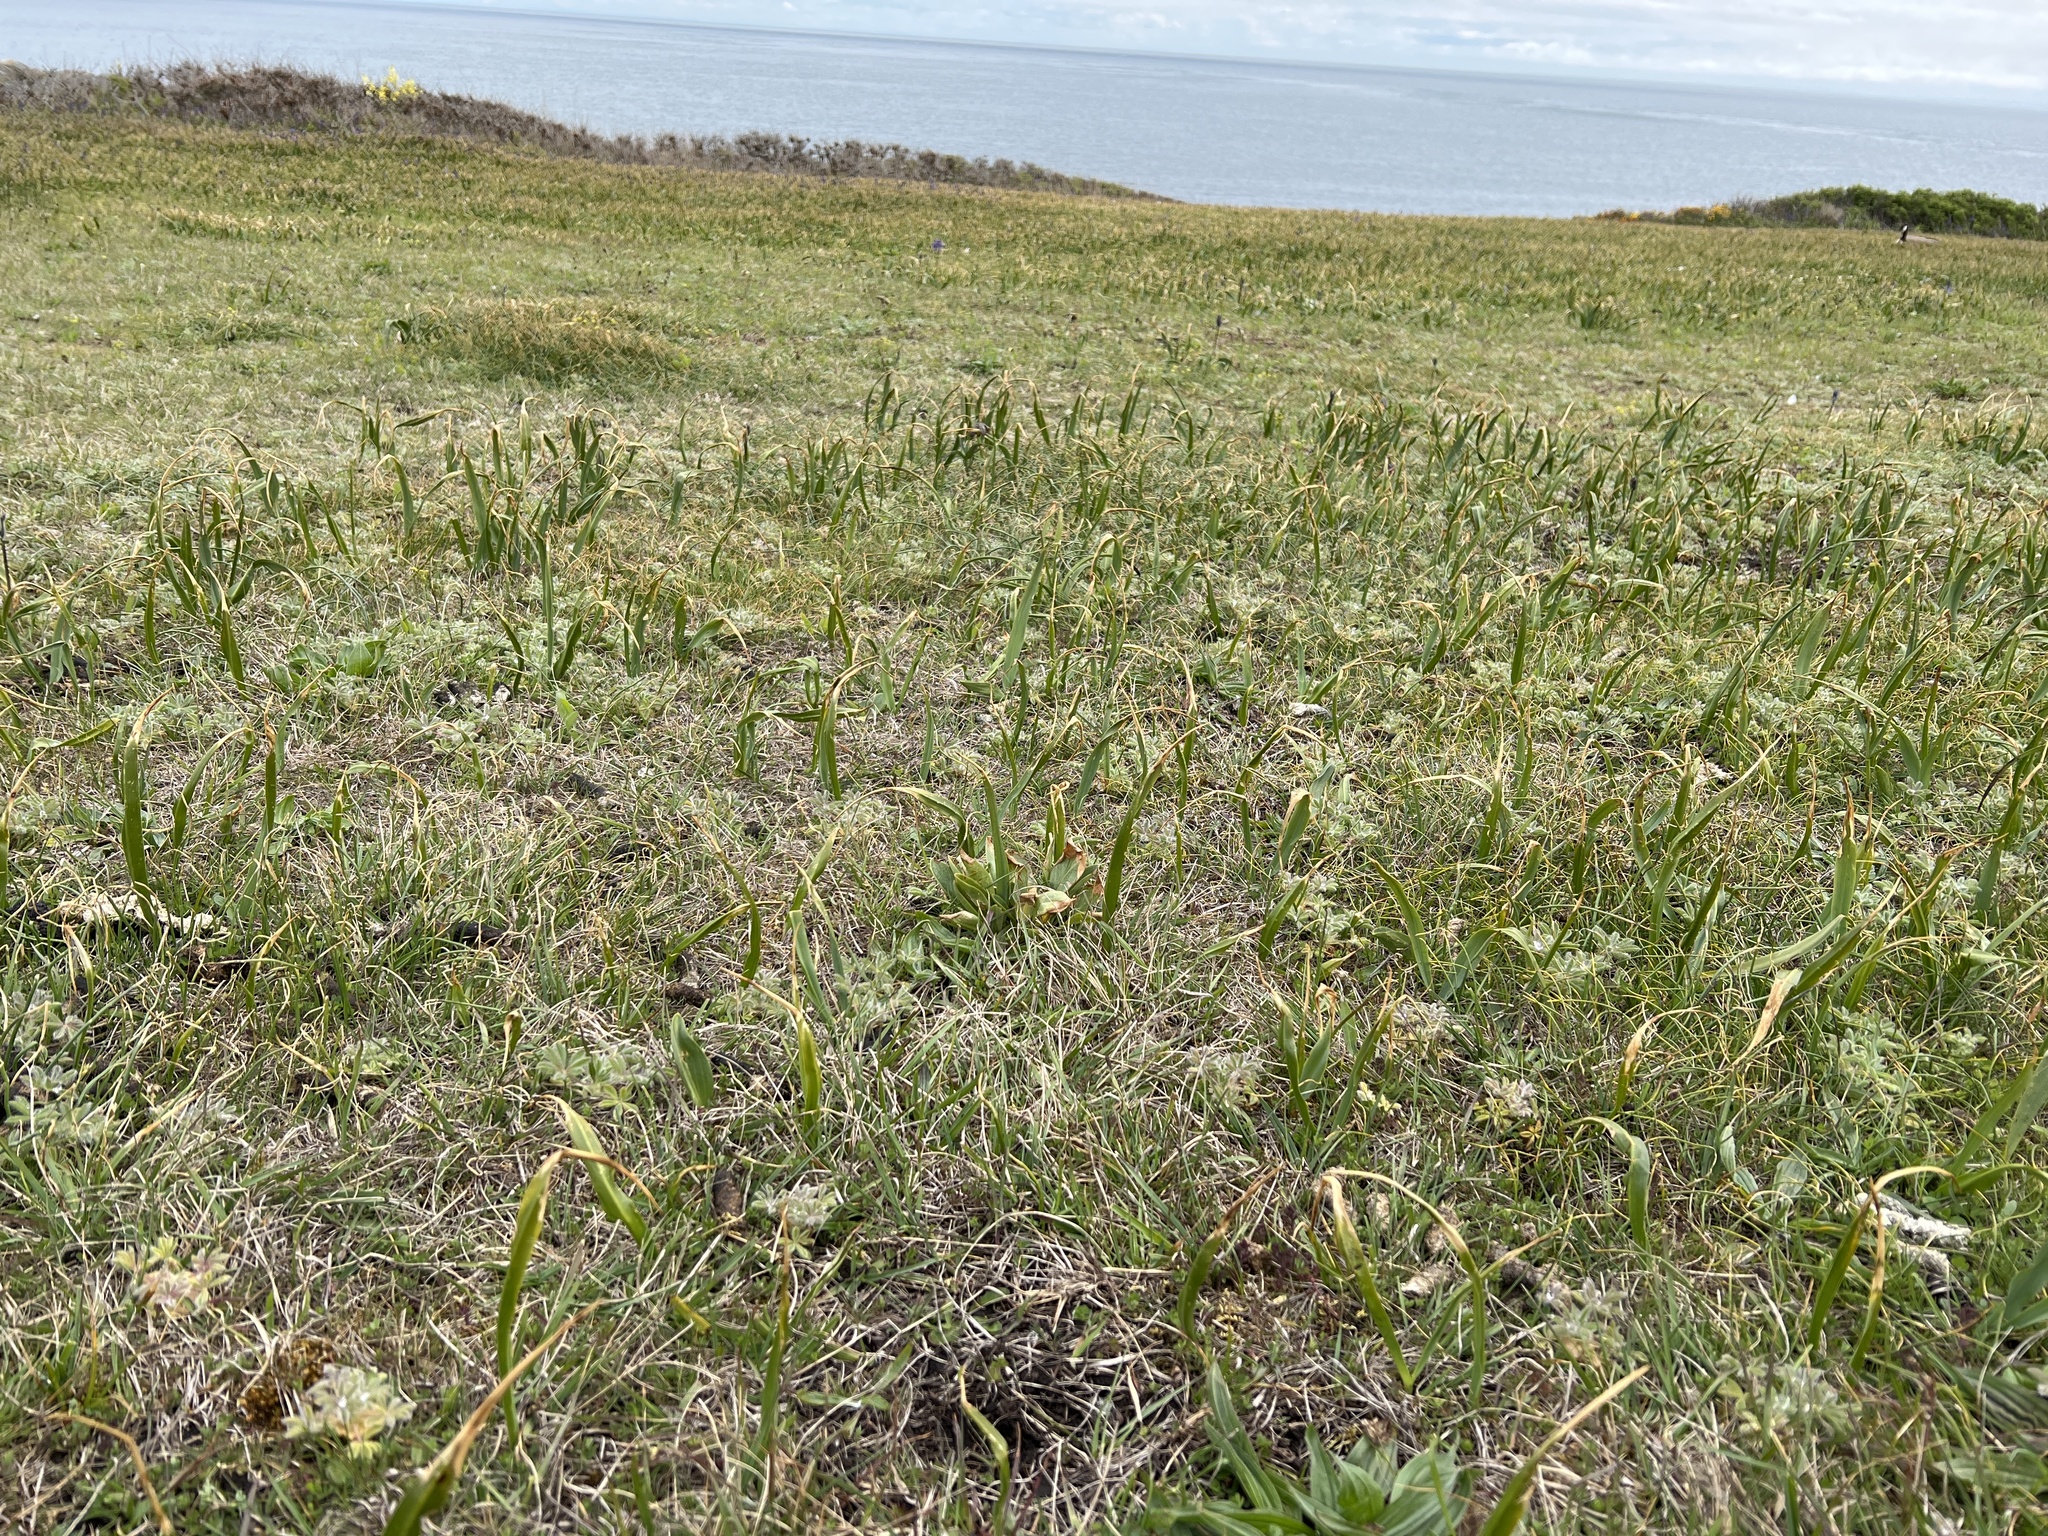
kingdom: Plantae
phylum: Tracheophyta
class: Magnoliopsida
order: Fabales
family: Fabaceae
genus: Lupinus
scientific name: Lupinus densiflorus
